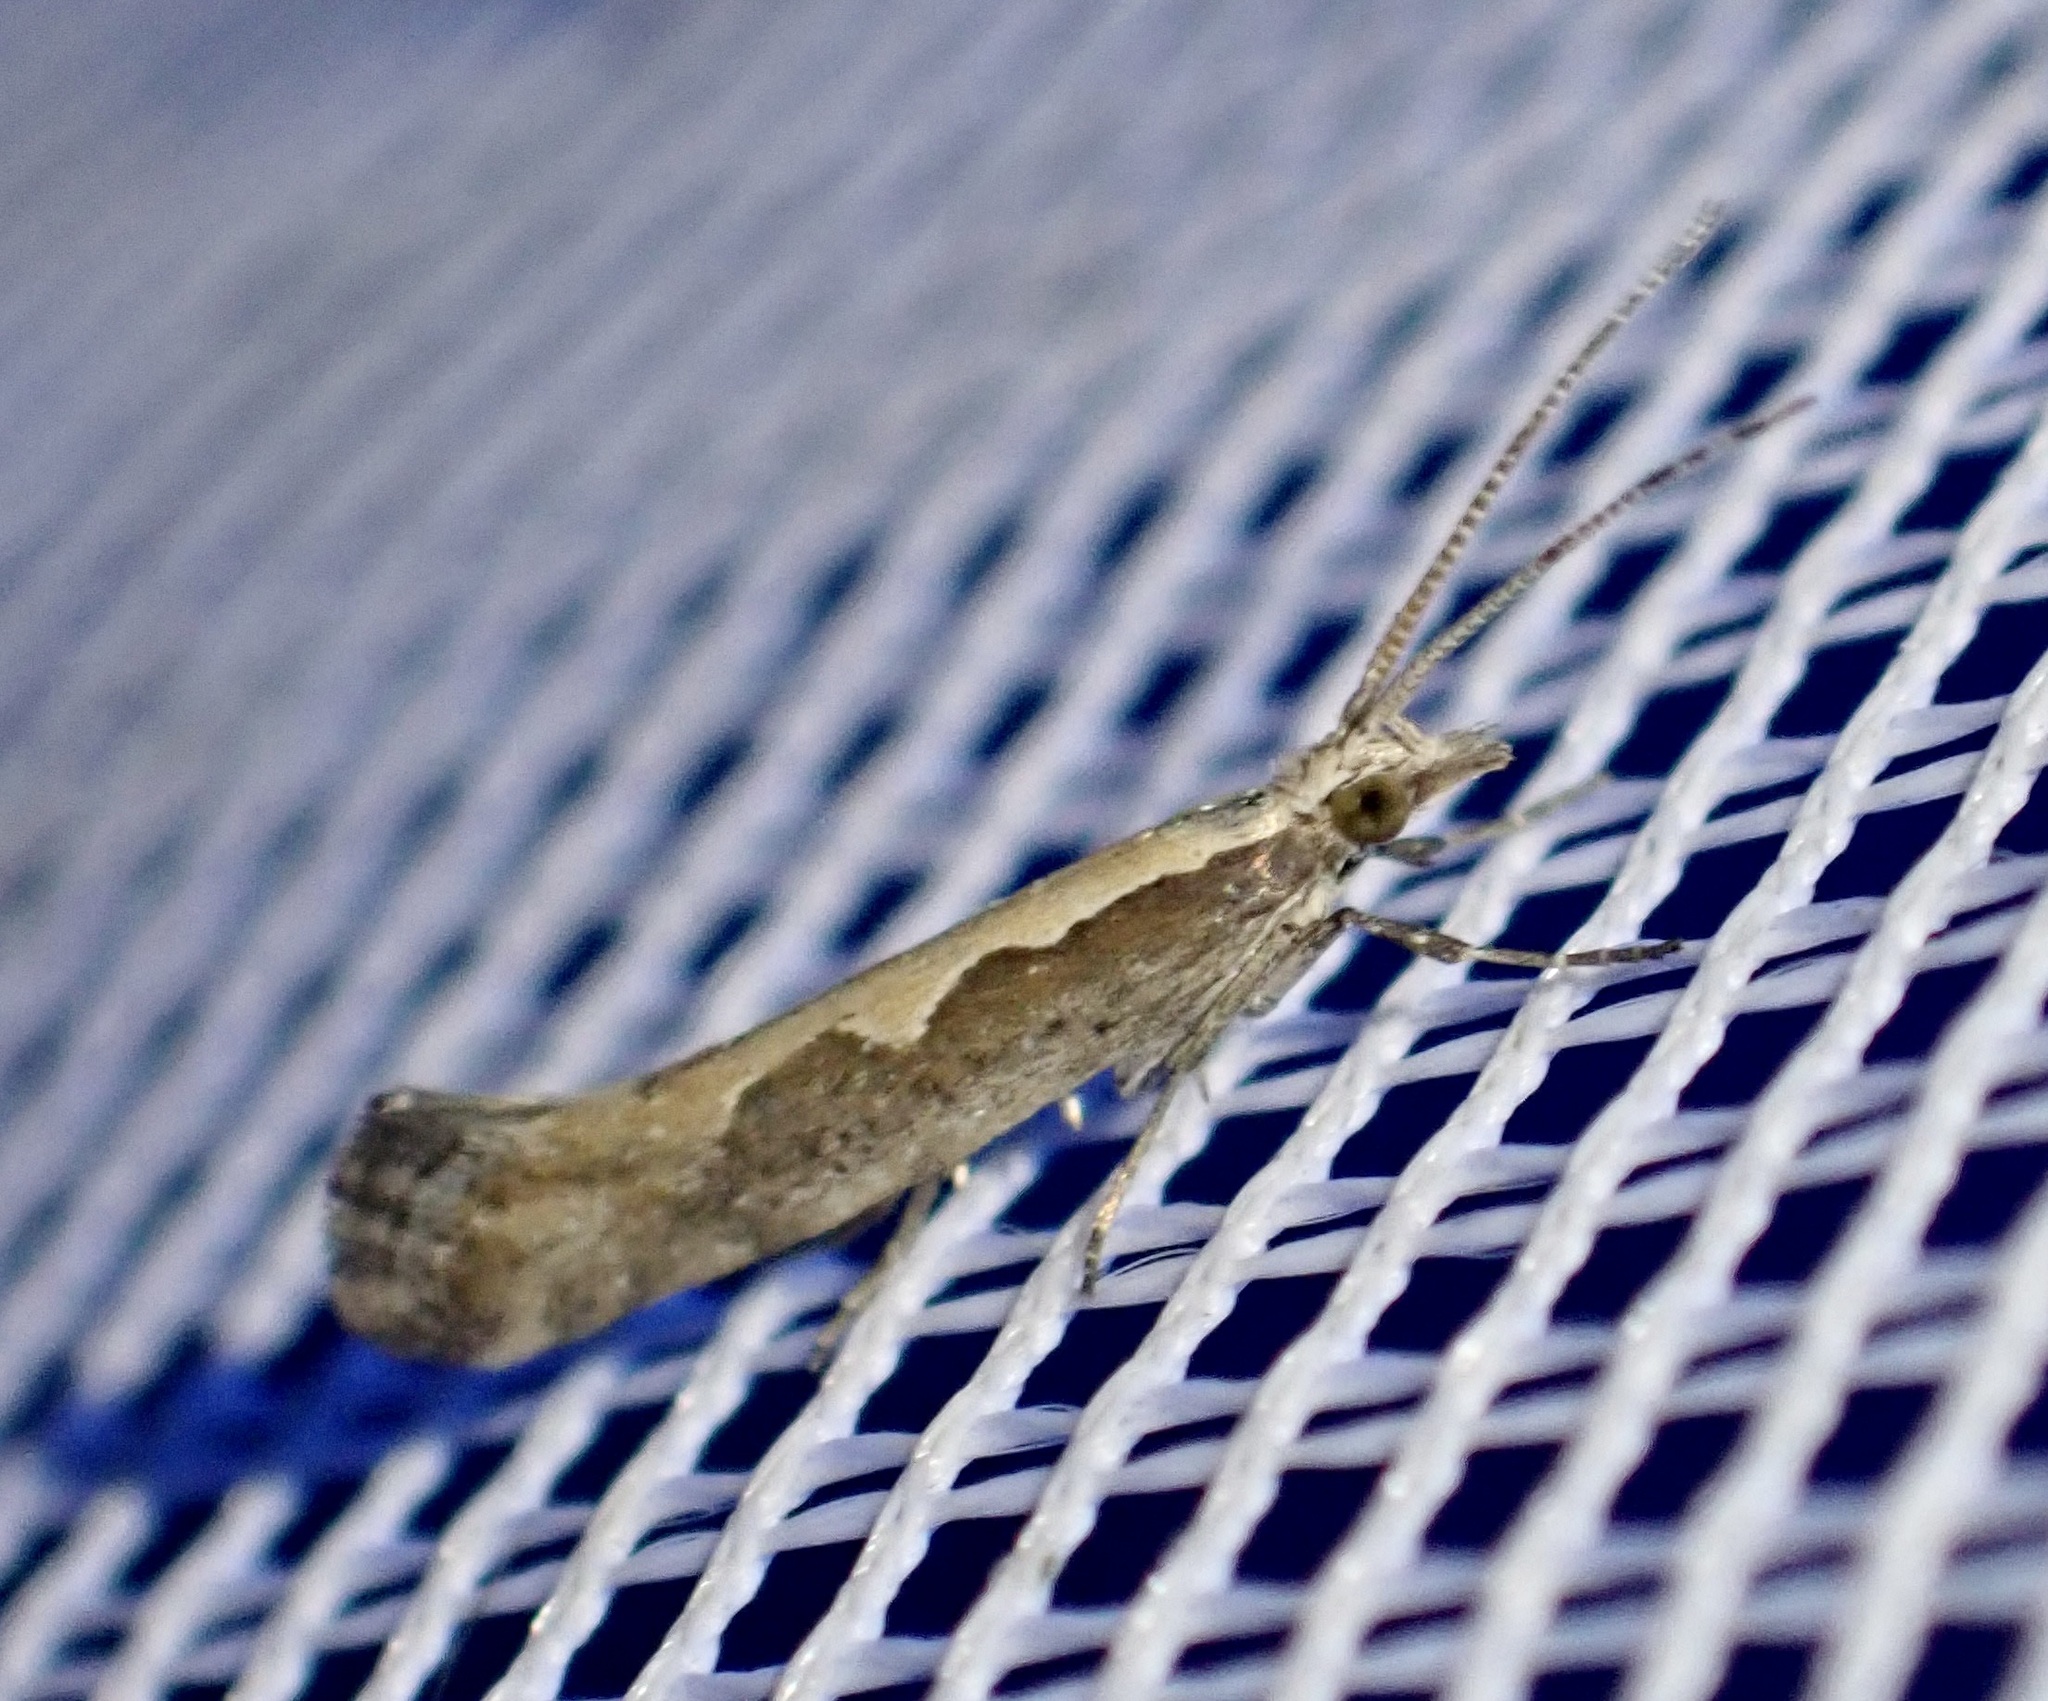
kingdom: Animalia
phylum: Arthropoda
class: Insecta
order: Lepidoptera
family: Plutellidae
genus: Plutella
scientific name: Plutella xylostella
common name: Diamond-back moth
